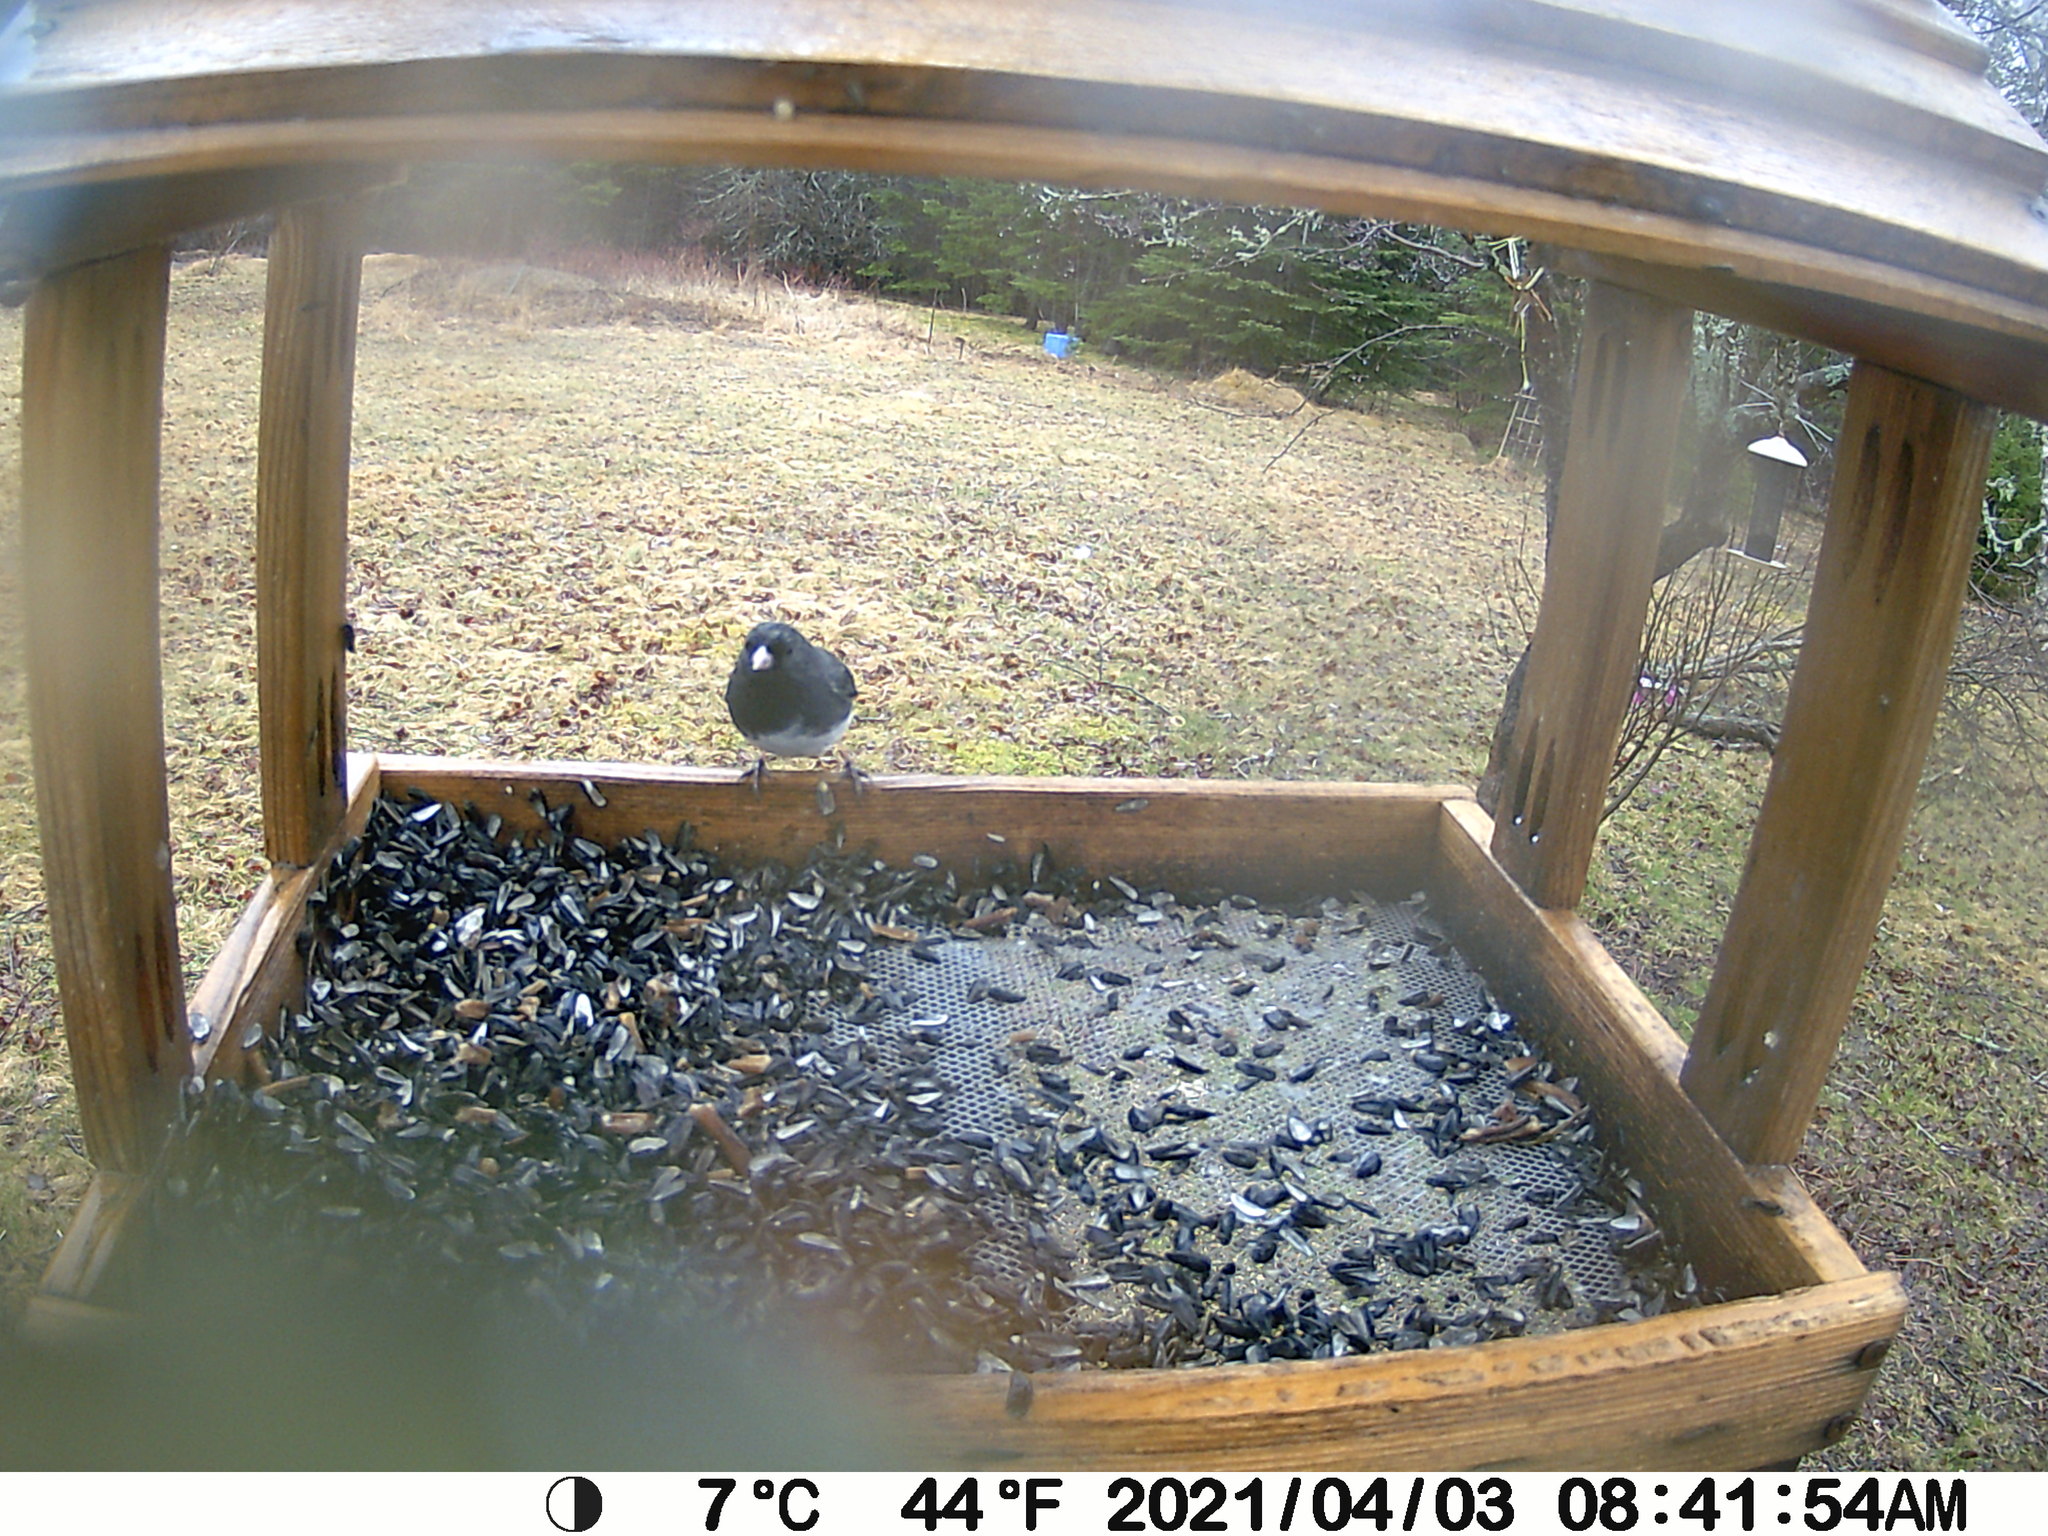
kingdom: Animalia
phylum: Chordata
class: Aves
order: Passeriformes
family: Passerellidae
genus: Junco
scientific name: Junco hyemalis
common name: Dark-eyed junco
